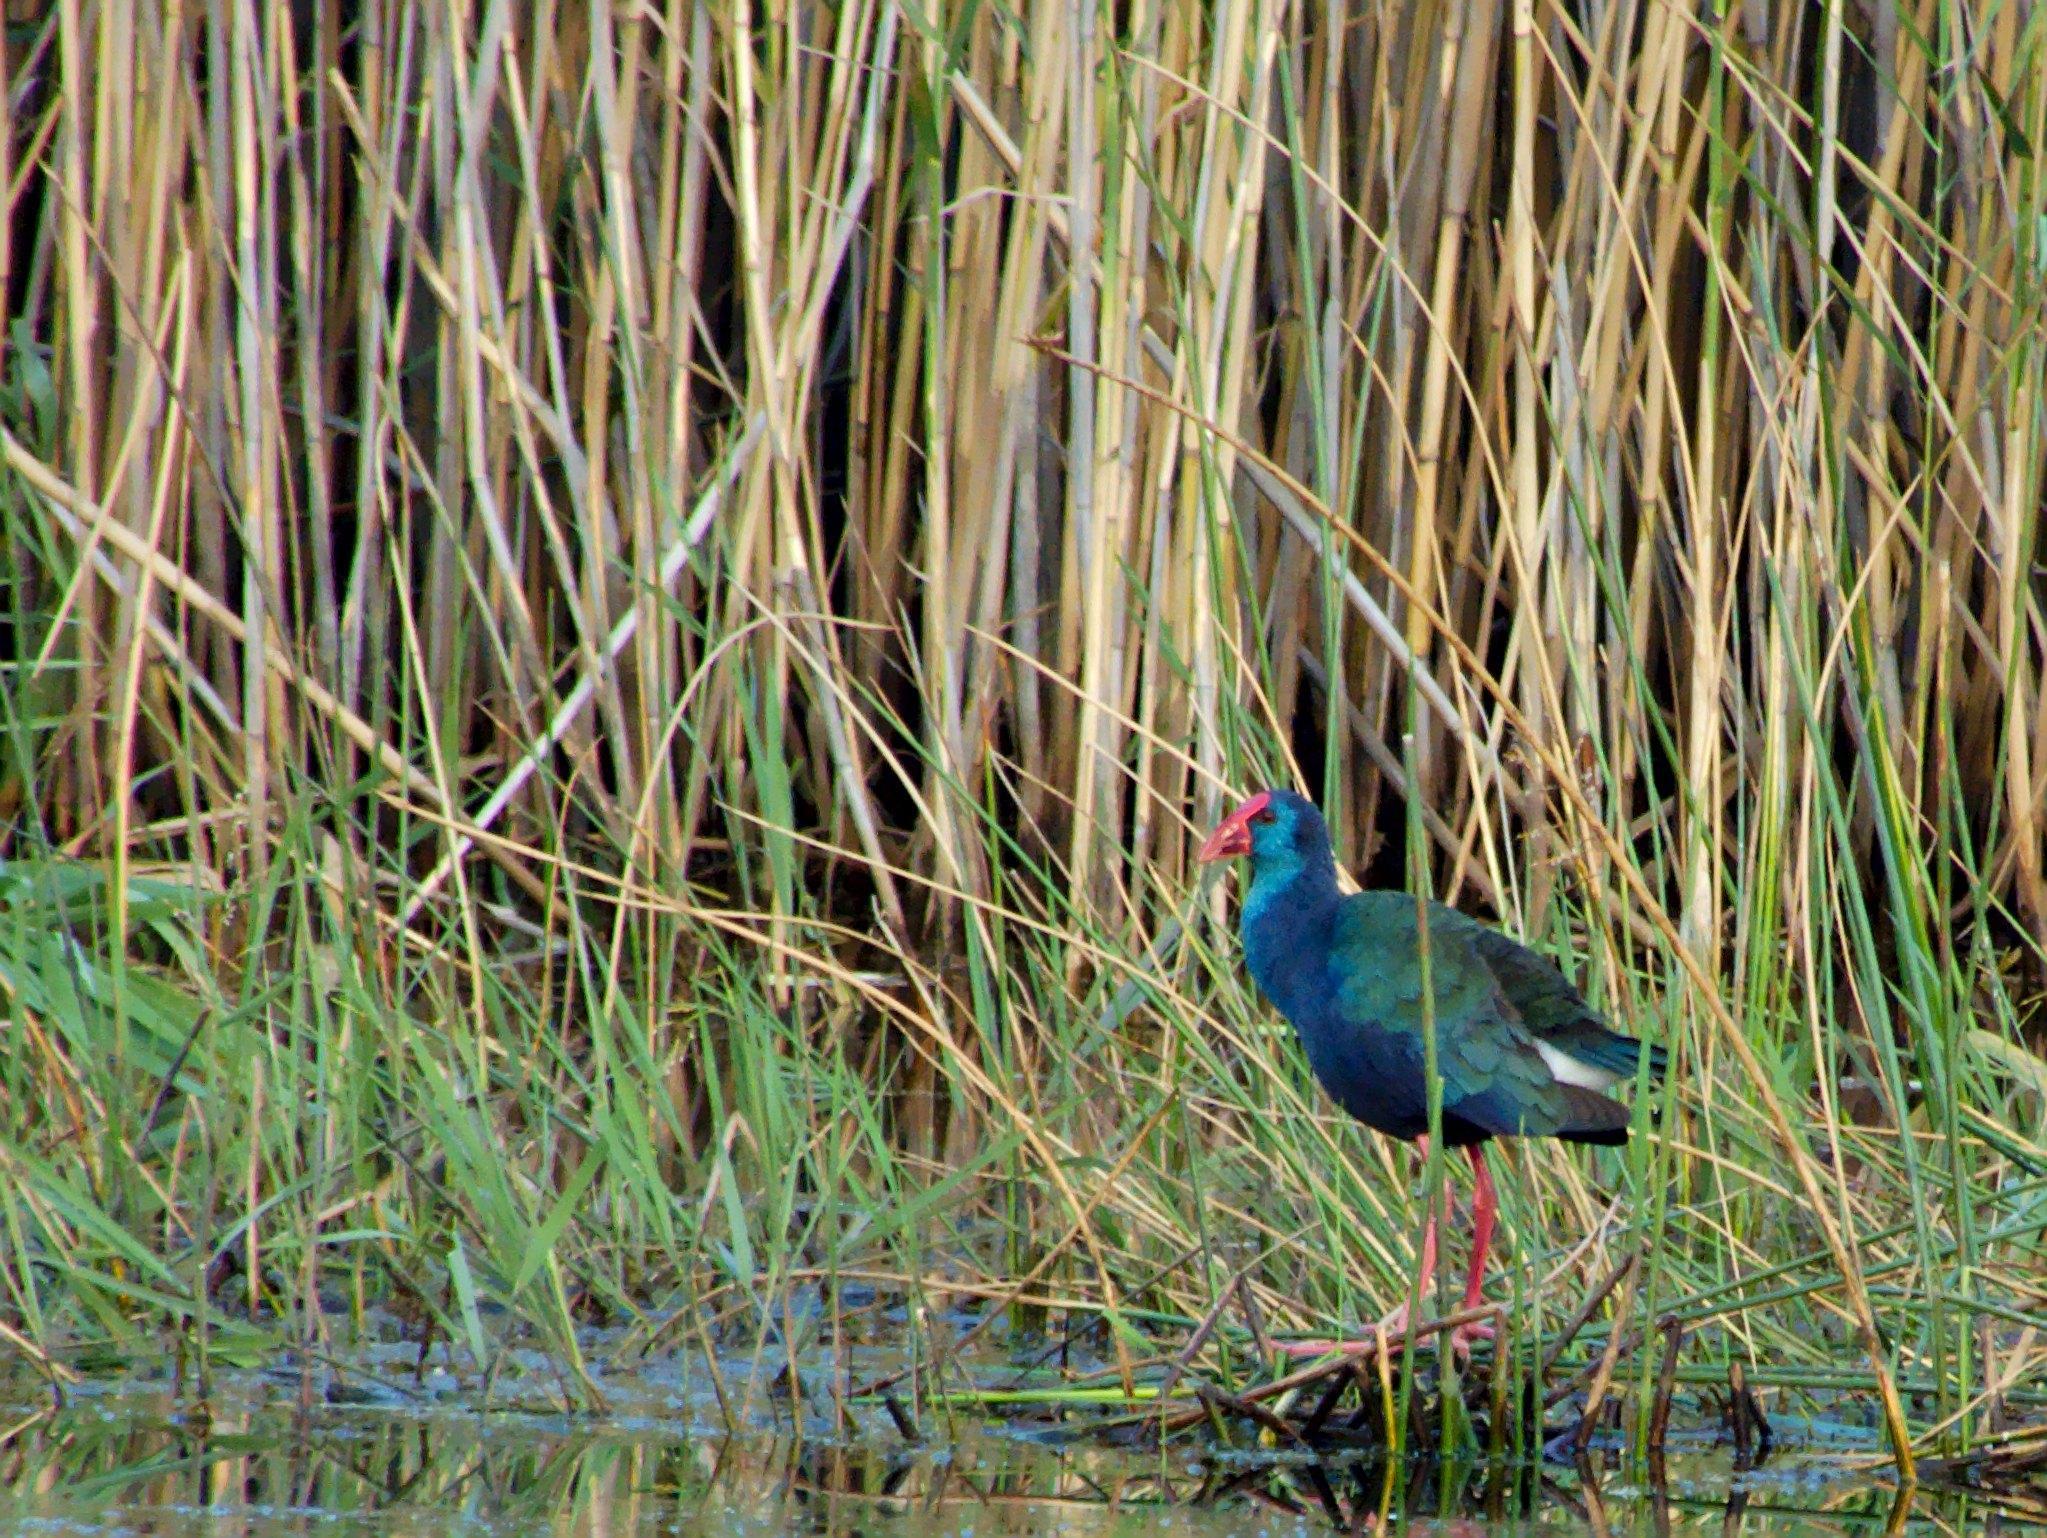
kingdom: Animalia
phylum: Chordata
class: Aves
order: Gruiformes
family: Rallidae
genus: Porphyrio
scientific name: Porphyrio porphyrio
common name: Purple swamphen
